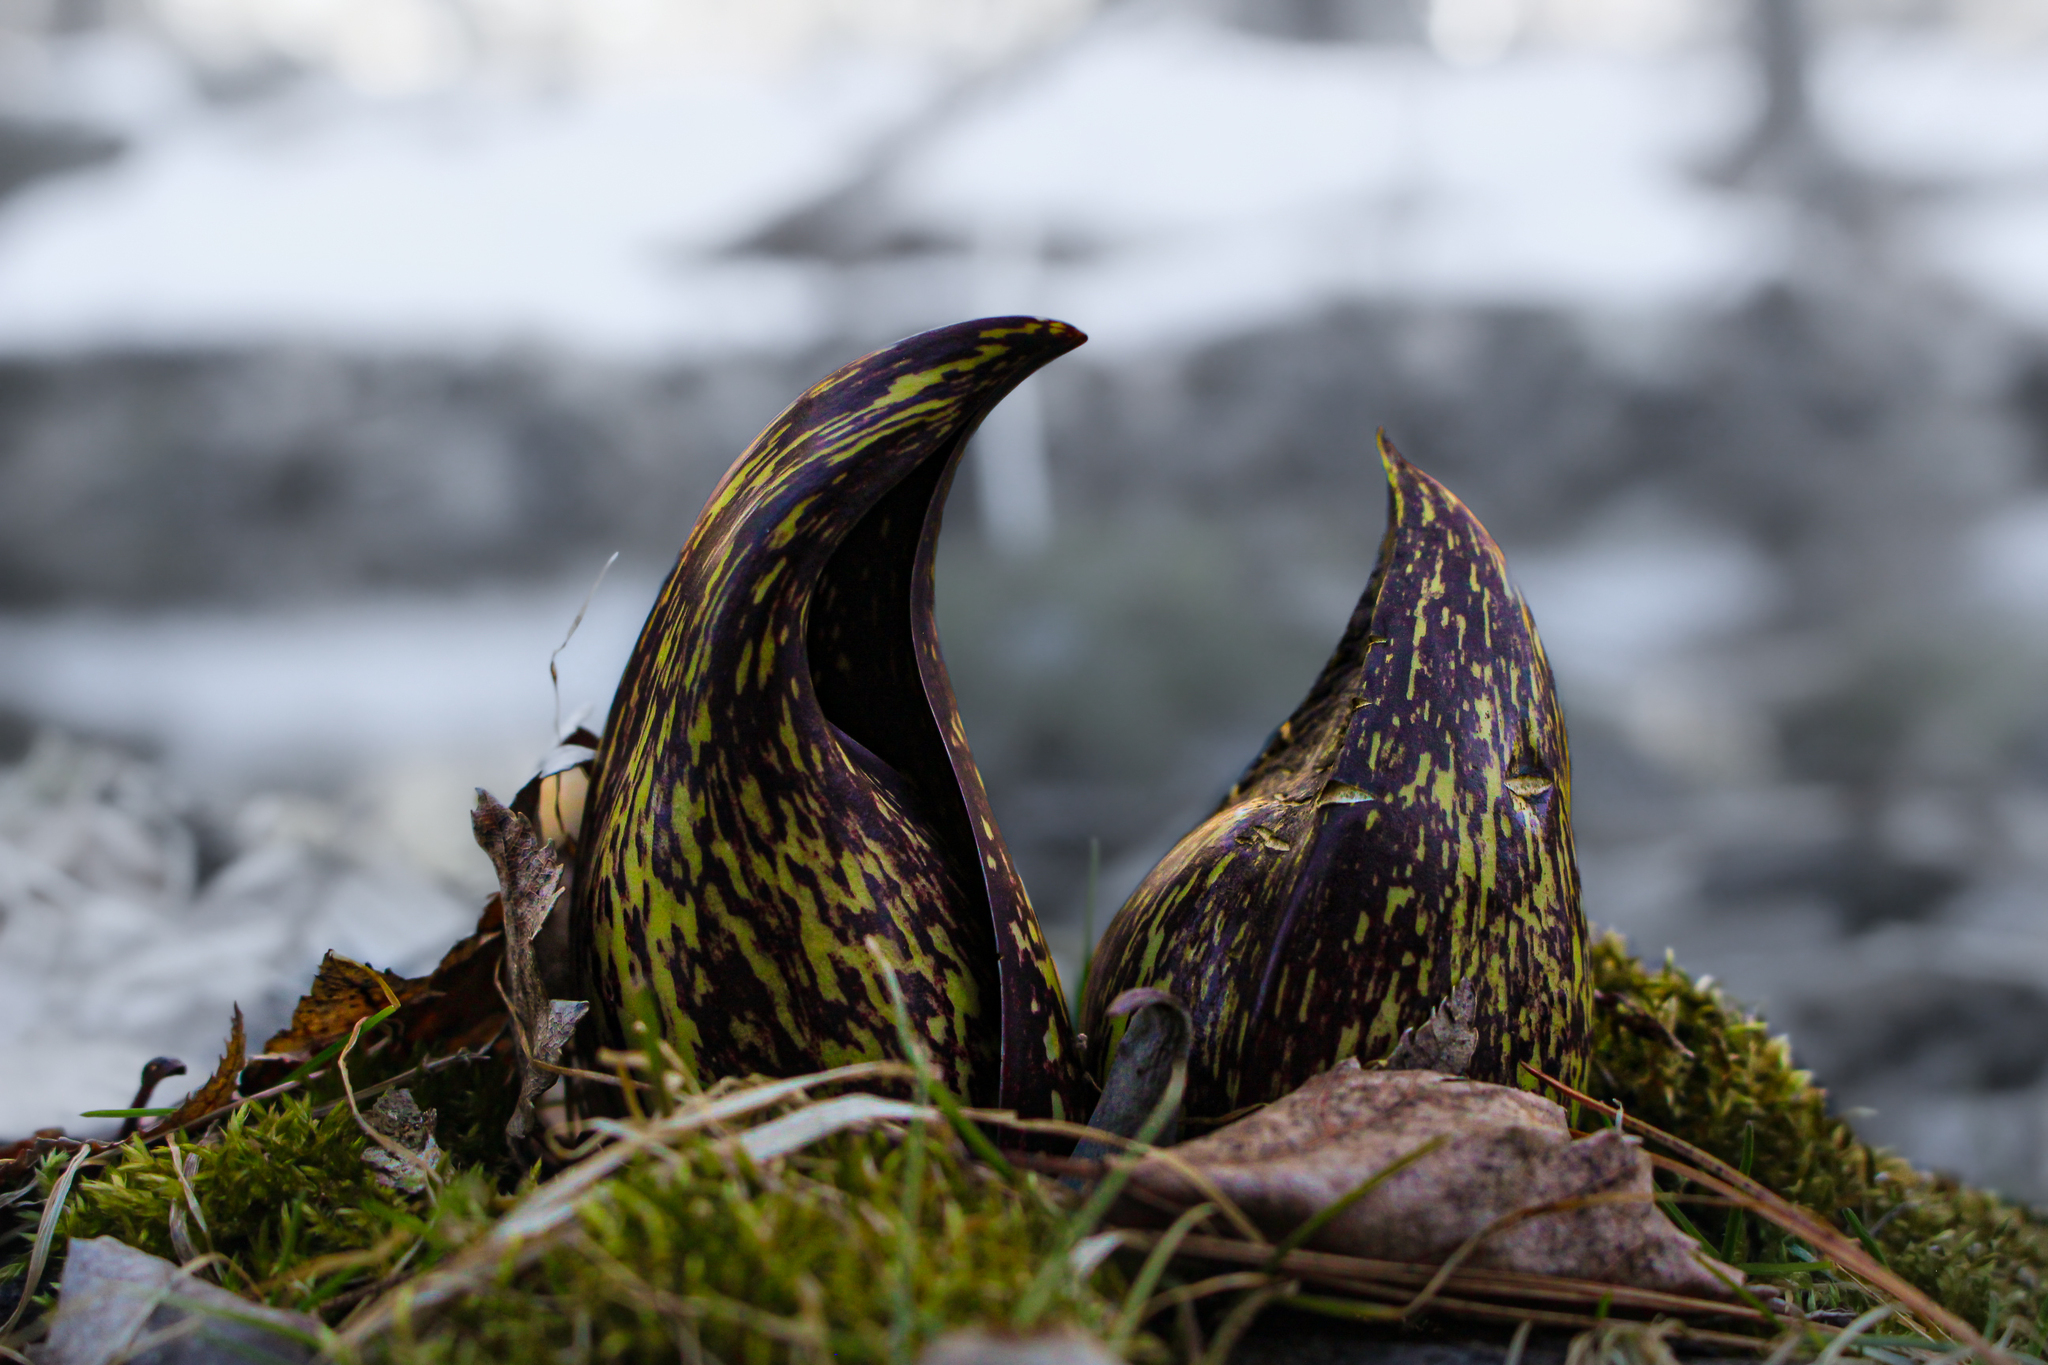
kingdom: Plantae
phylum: Tracheophyta
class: Liliopsida
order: Alismatales
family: Araceae
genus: Symplocarpus
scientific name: Symplocarpus foetidus
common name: Eastern skunk cabbage
